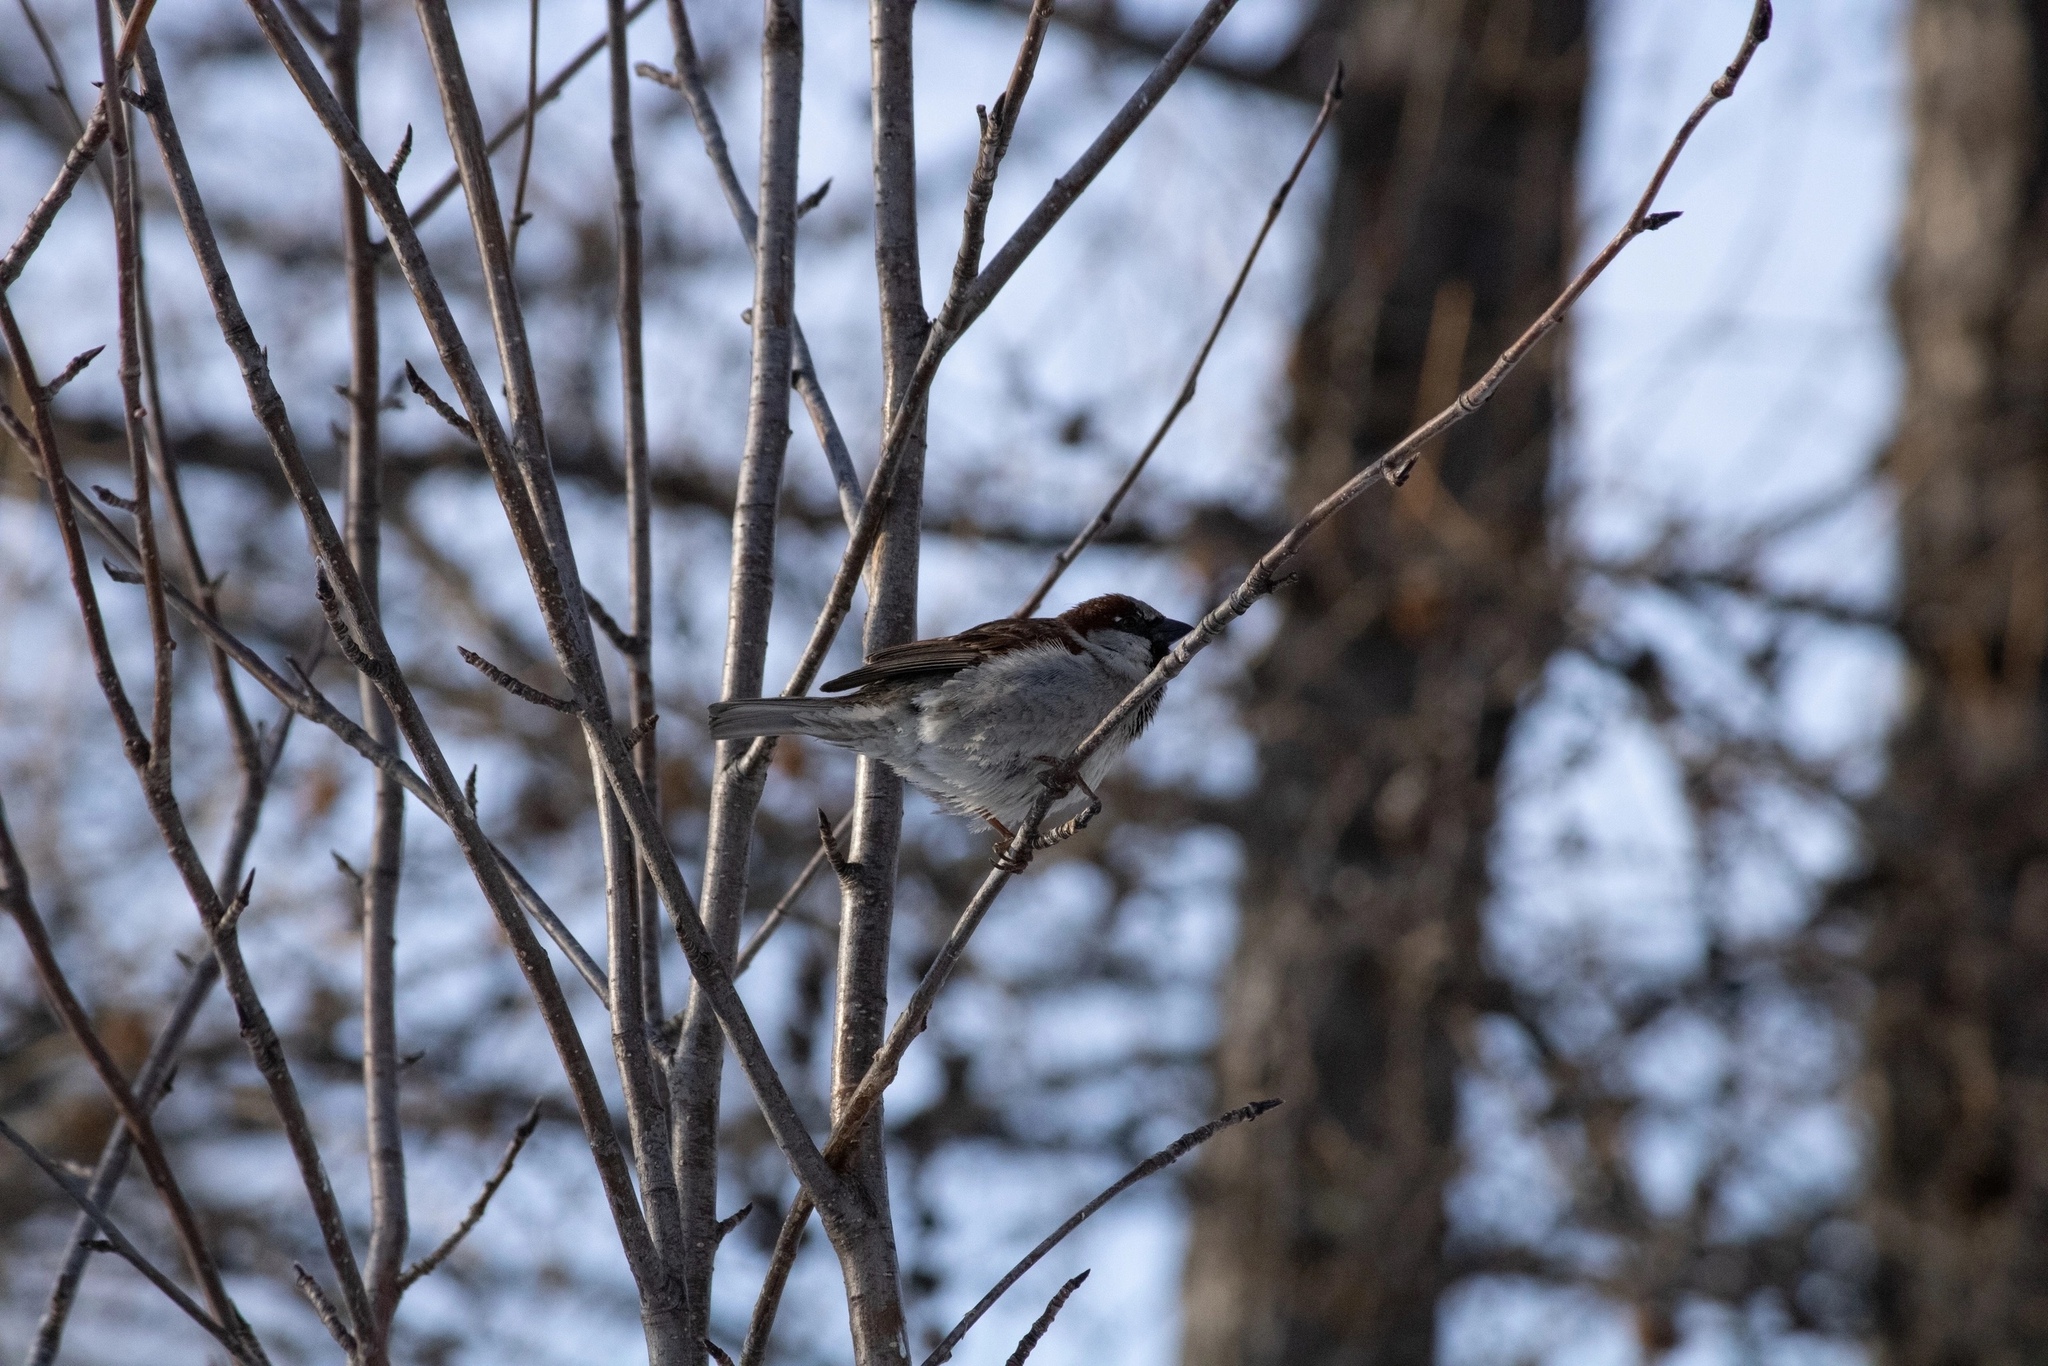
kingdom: Animalia
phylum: Chordata
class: Aves
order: Passeriformes
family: Passeridae
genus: Passer
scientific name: Passer domesticus
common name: House sparrow
